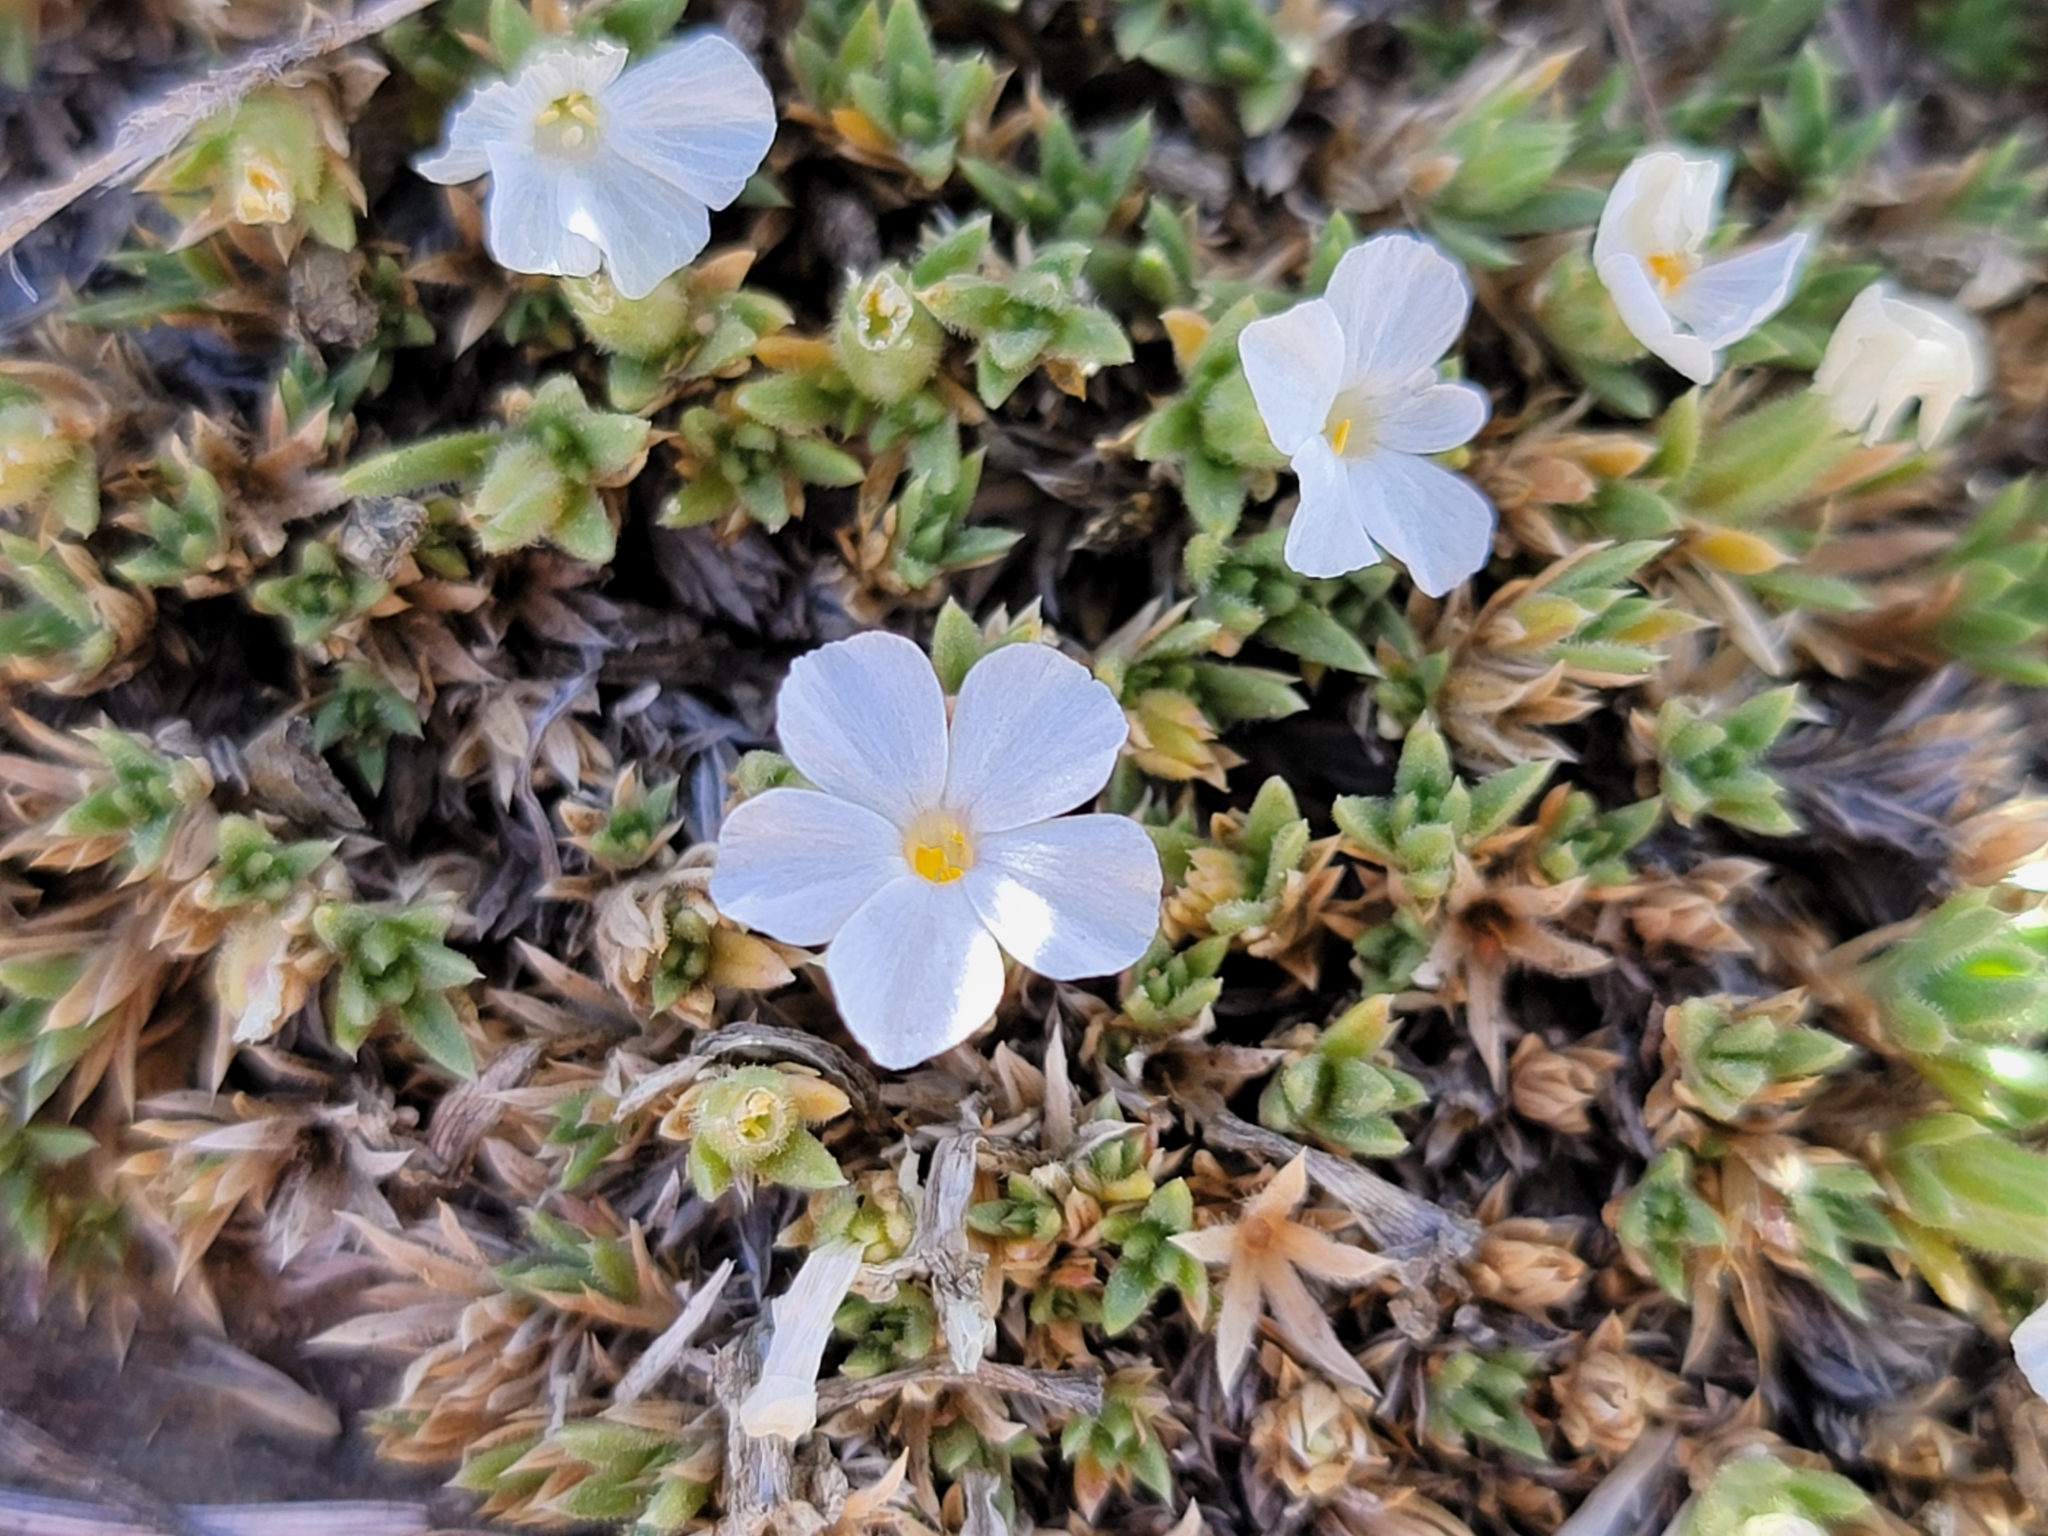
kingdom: Plantae
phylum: Tracheophyta
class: Magnoliopsida
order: Ericales
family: Polemoniaceae
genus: Phlox
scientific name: Phlox condensata
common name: Compact phlox
